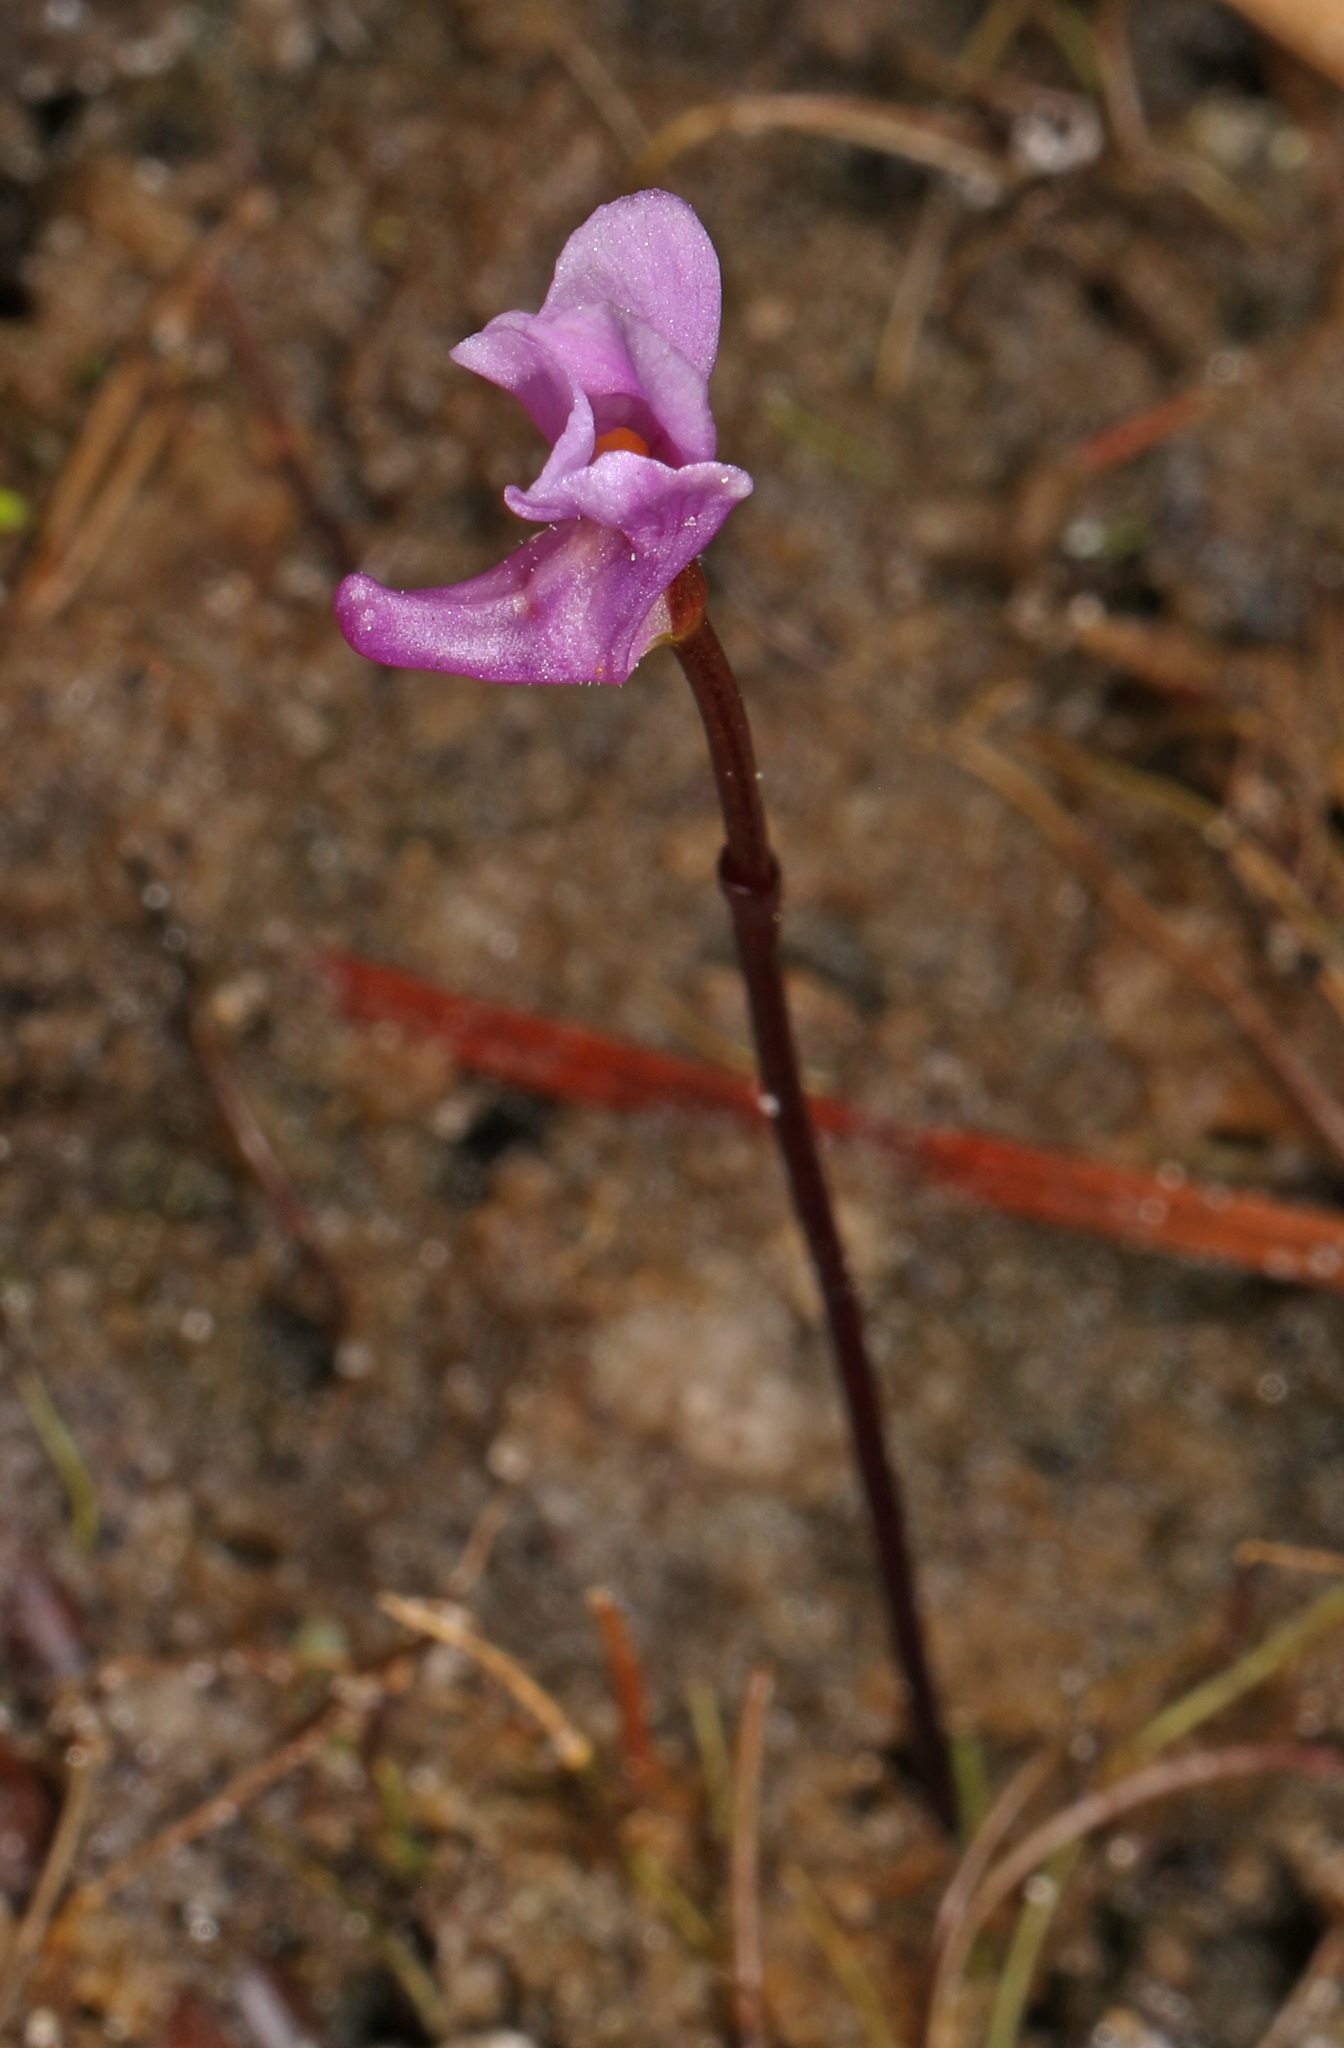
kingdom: Plantae
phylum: Tracheophyta
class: Magnoliopsida
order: Lamiales
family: Lentibulariaceae
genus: Utricularia
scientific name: Utricularia resupinata
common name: Northeastern bladderwort
